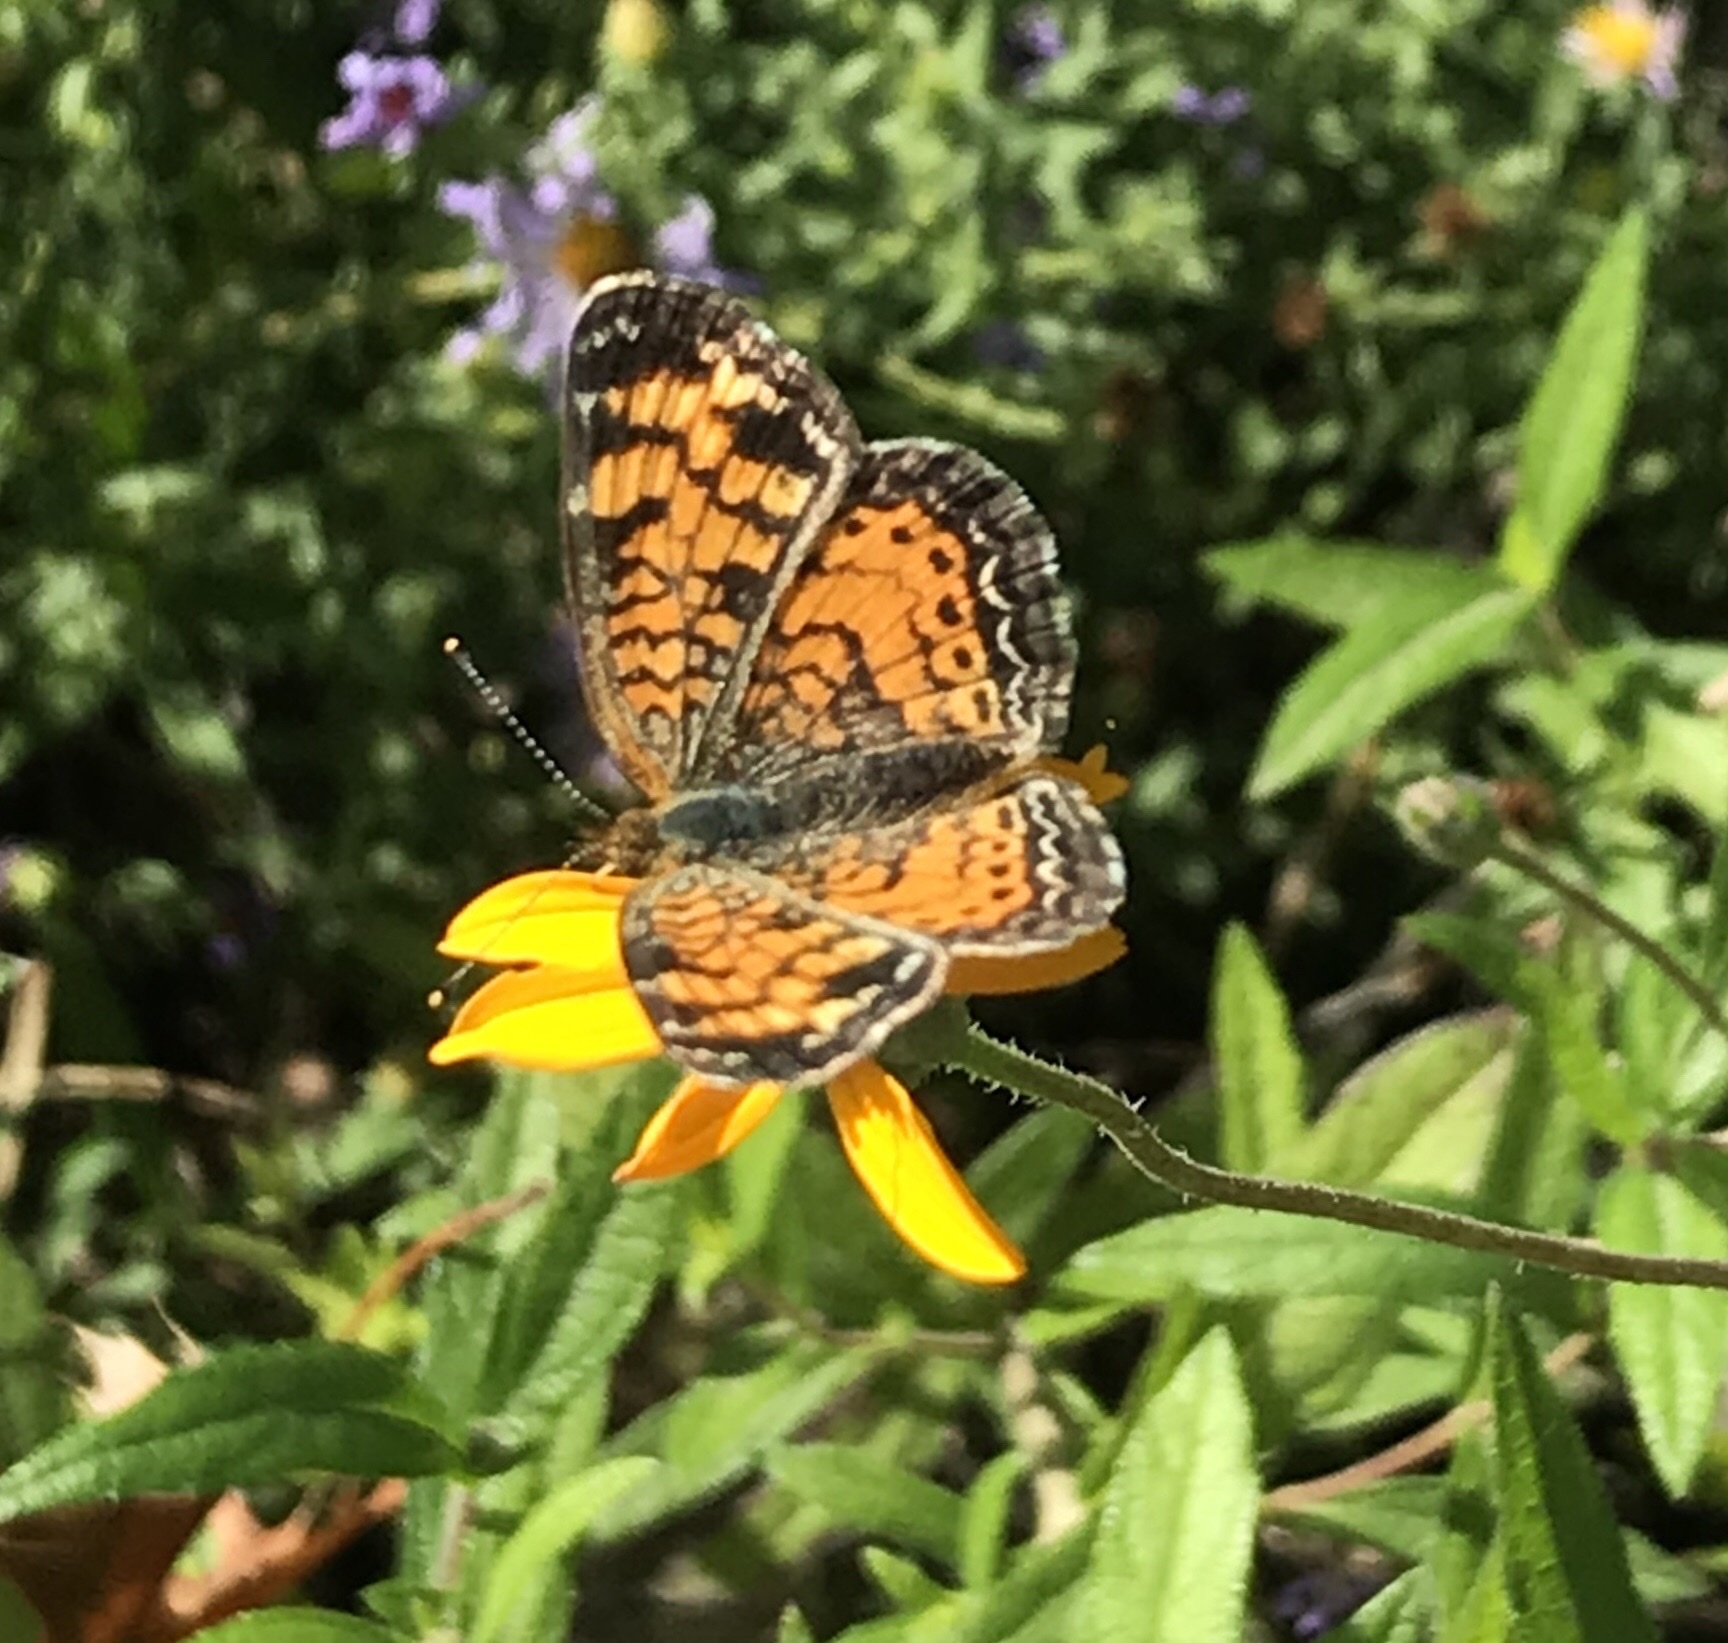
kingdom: Animalia
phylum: Arthropoda
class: Insecta
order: Lepidoptera
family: Nymphalidae
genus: Phyciodes
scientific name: Phyciodes tharos
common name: Pearl crescent
